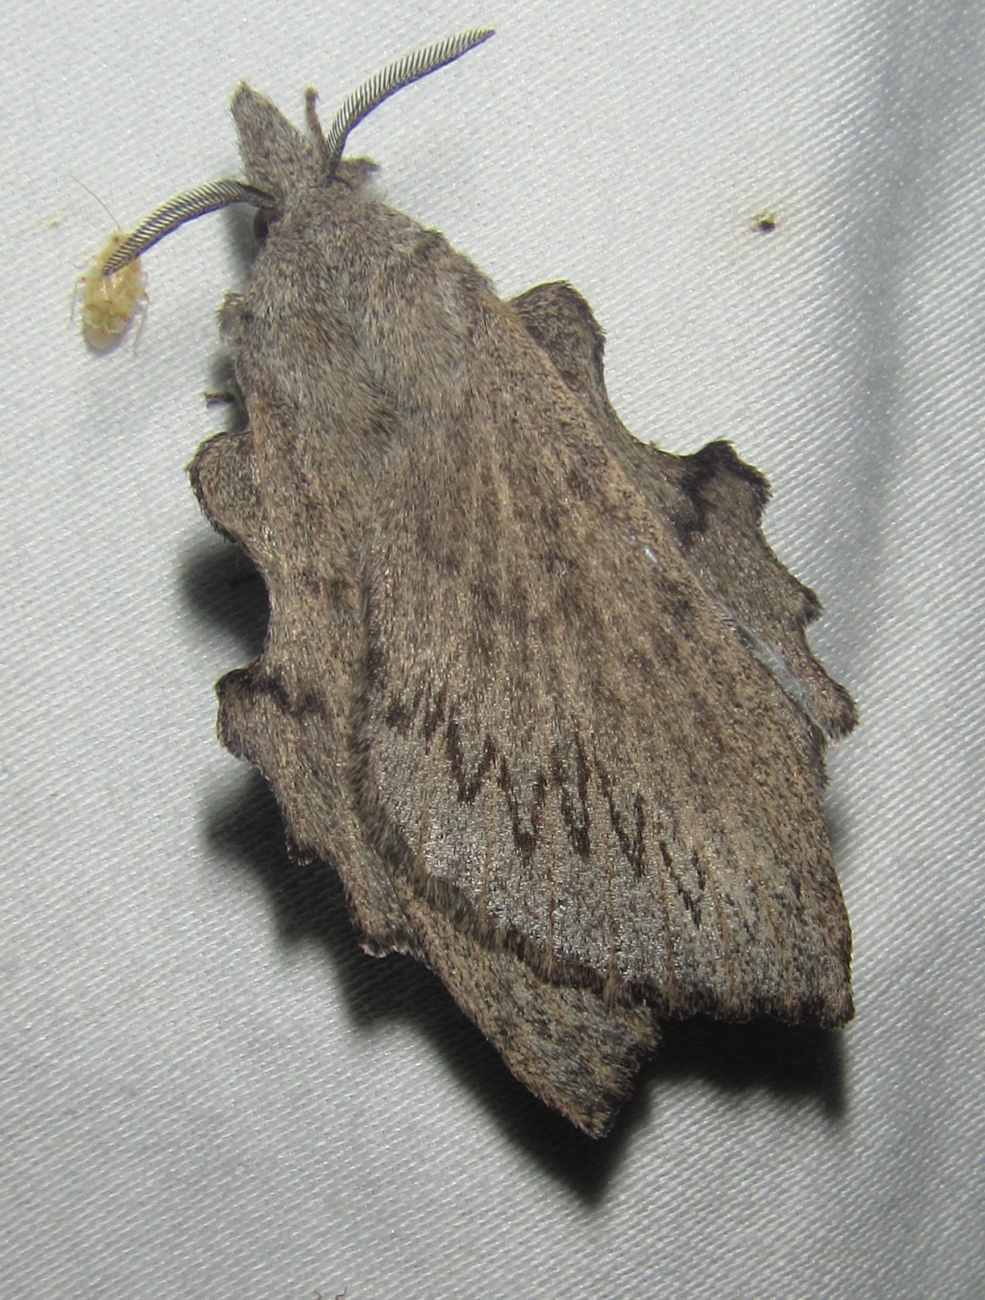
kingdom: Animalia
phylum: Arthropoda
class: Insecta
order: Lepidoptera
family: Lasiocampidae
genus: Rhinobombyx
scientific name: Rhinobombyx cuneata
